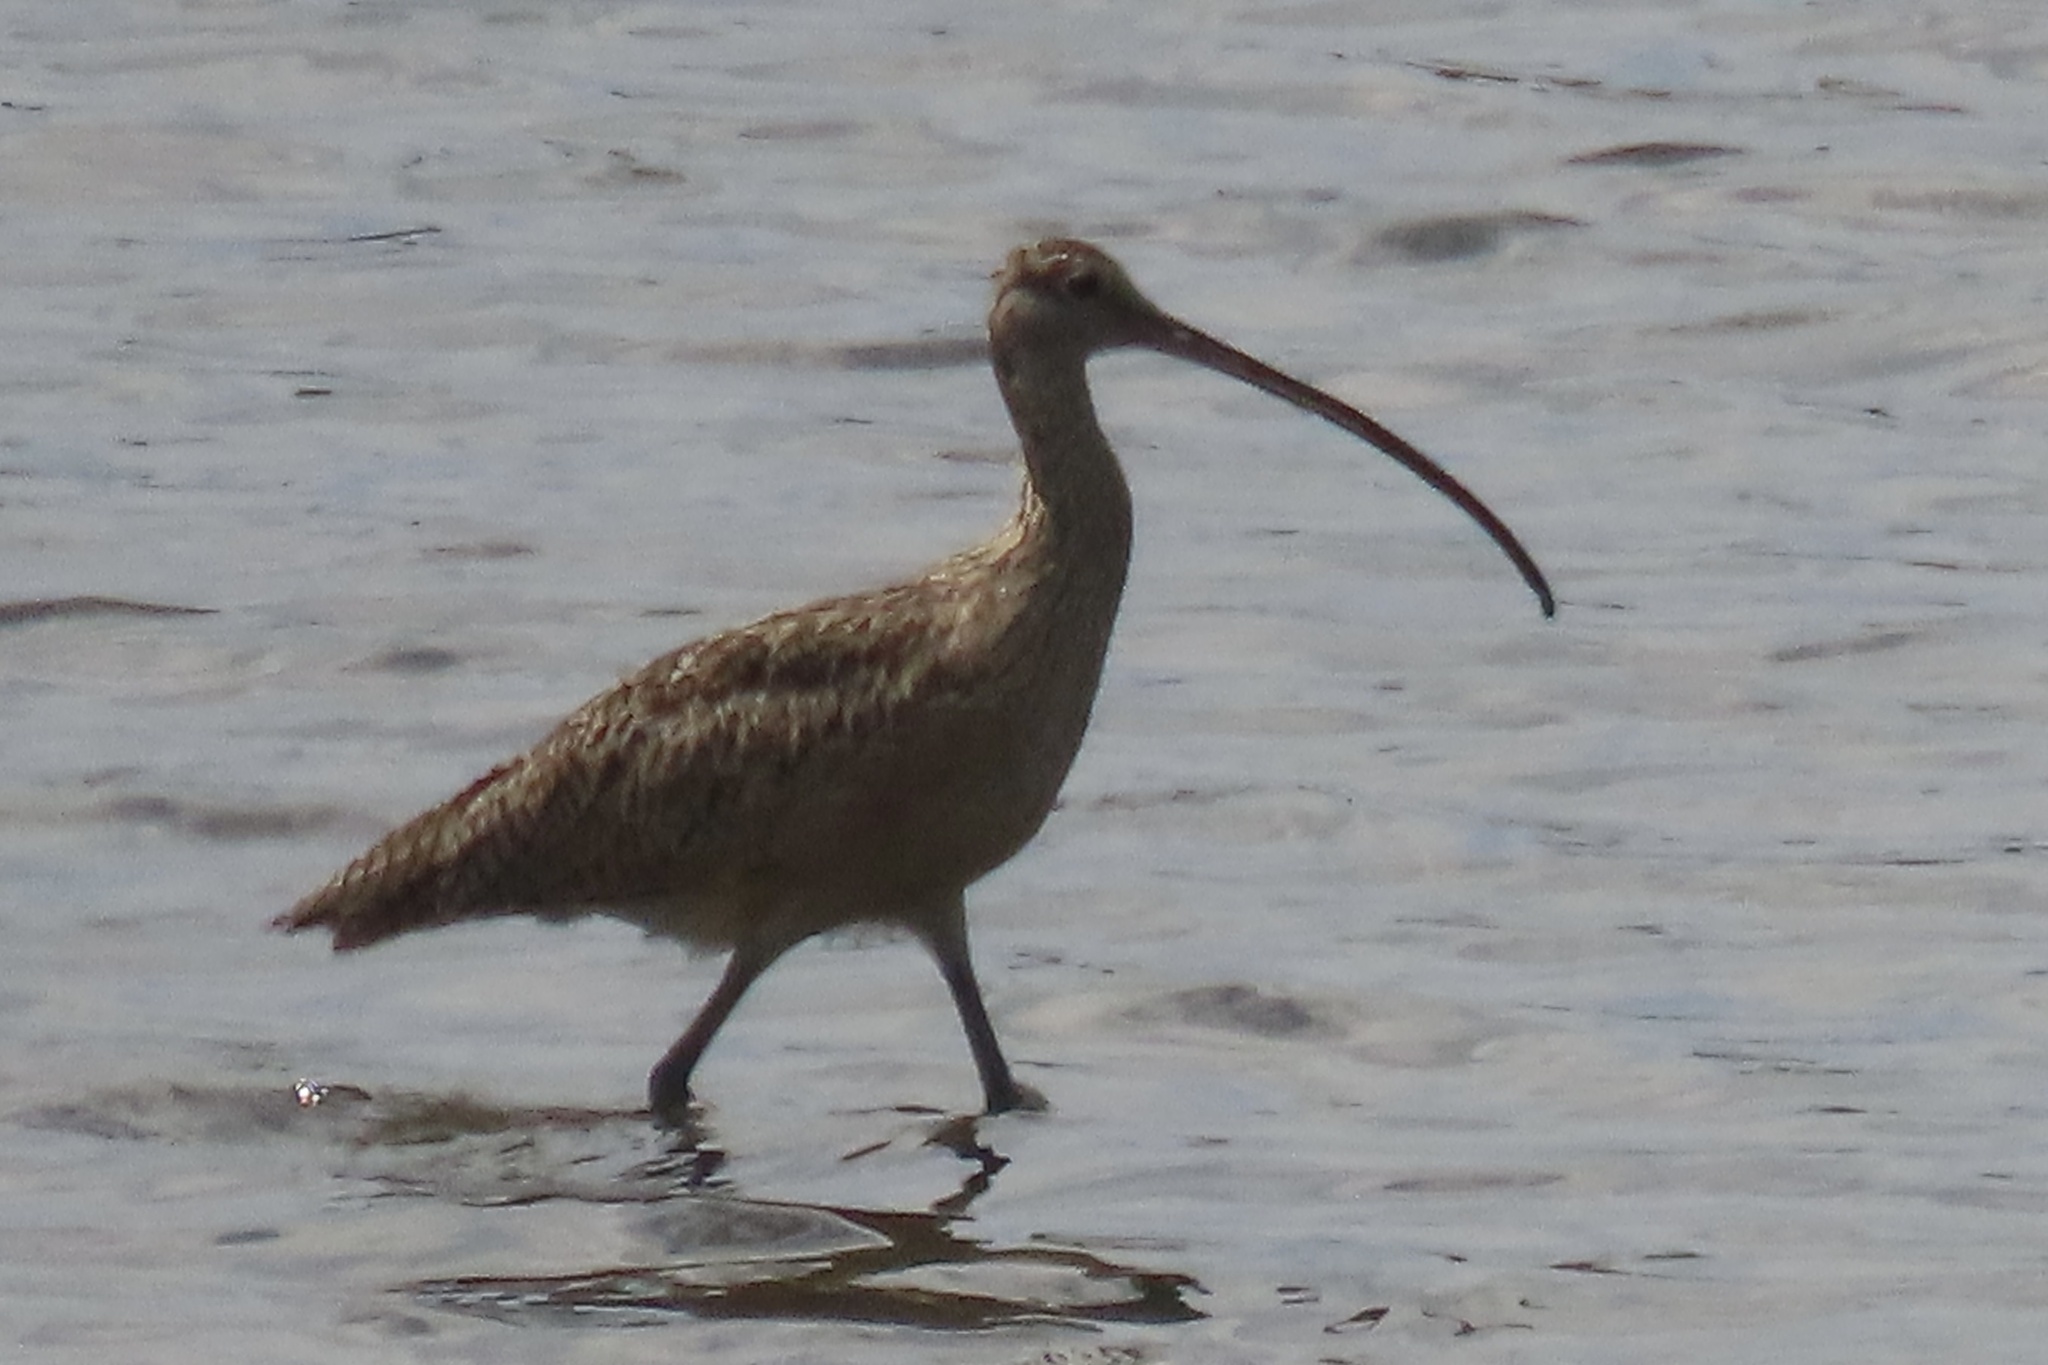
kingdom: Animalia
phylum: Chordata
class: Aves
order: Charadriiformes
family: Scolopacidae
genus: Numenius
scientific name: Numenius americanus
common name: Long-billed curlew
